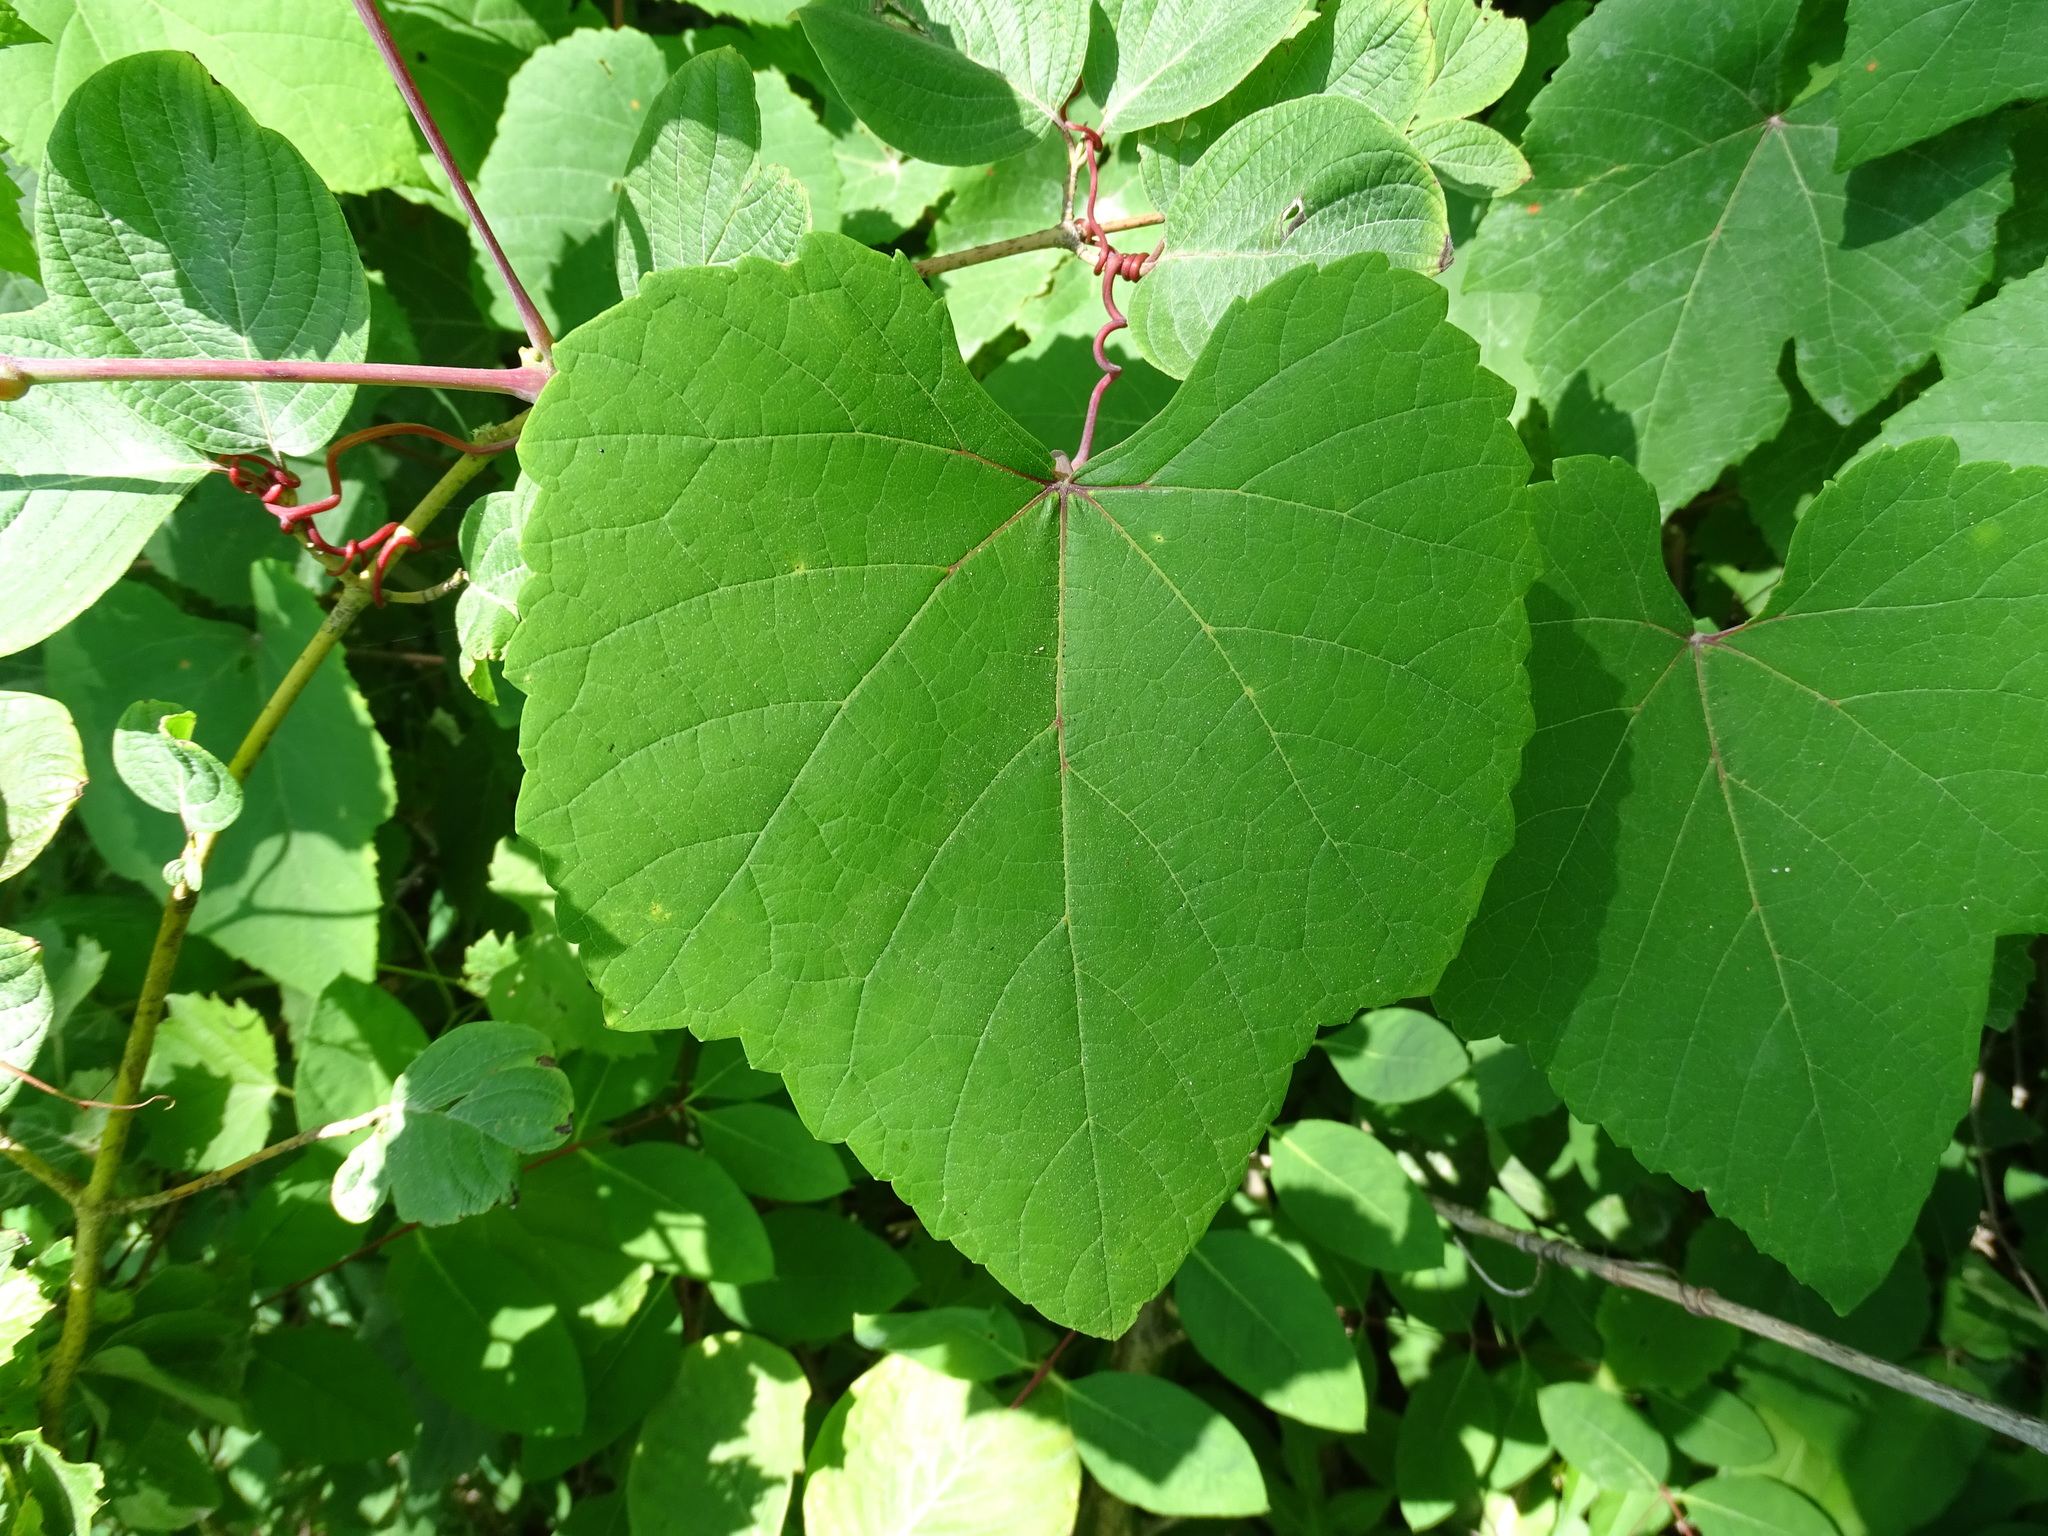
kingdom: Plantae
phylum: Tracheophyta
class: Magnoliopsida
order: Vitales
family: Vitaceae
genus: Vitis
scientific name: Vitis aestivalis
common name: Pigeon grape
